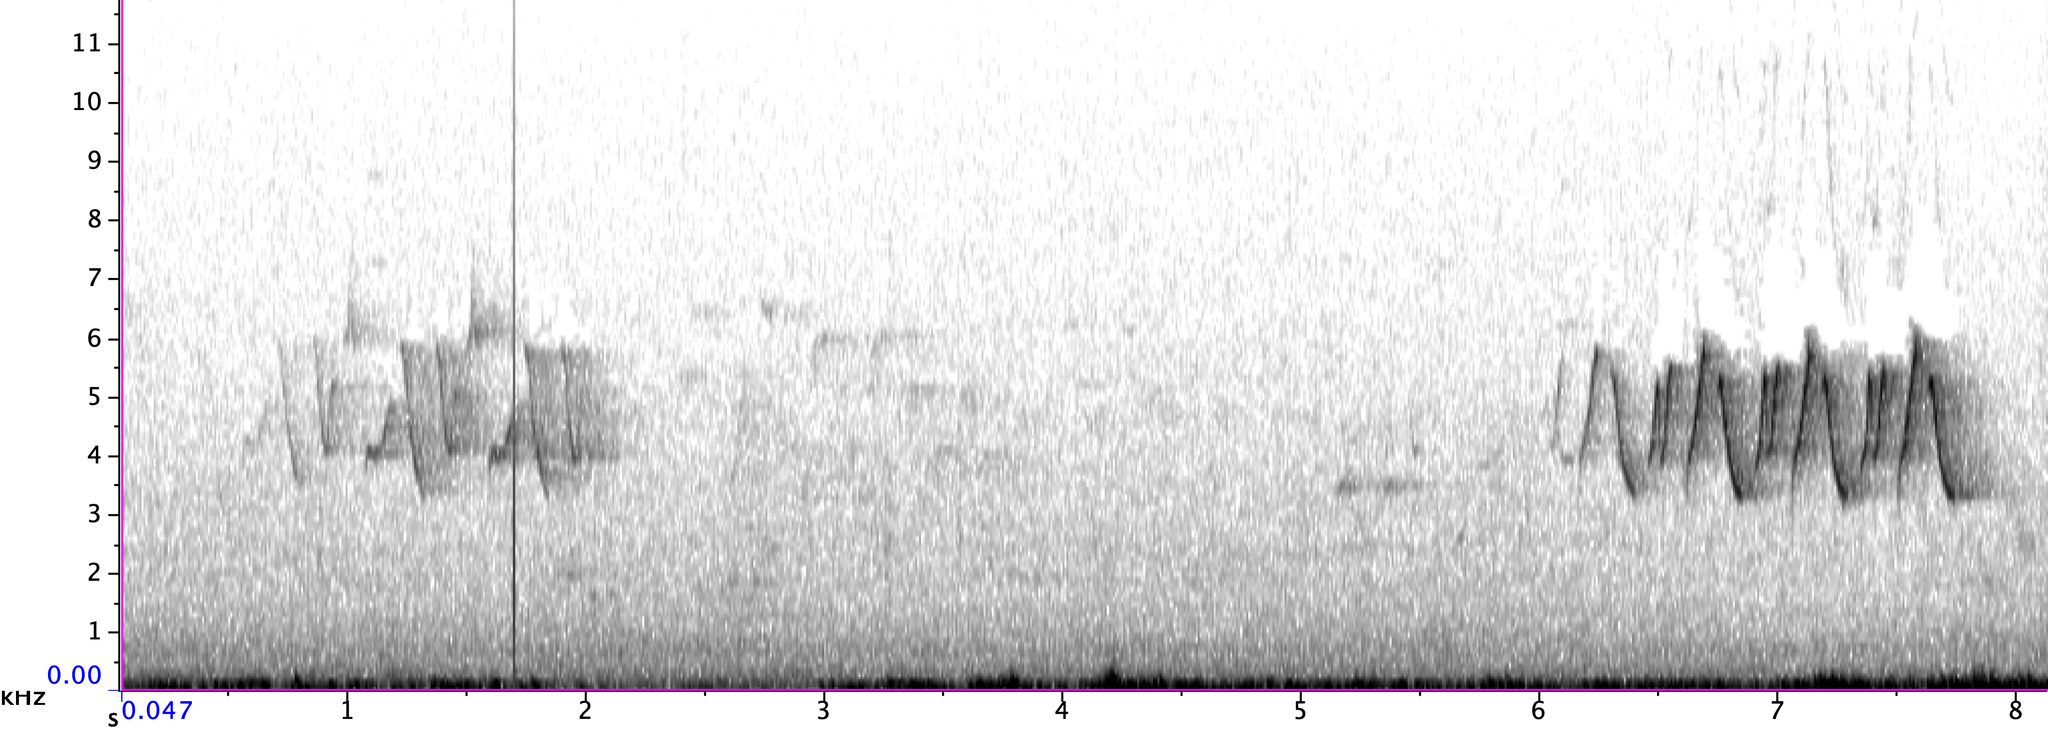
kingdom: Animalia
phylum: Chordata
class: Aves
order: Passeriformes
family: Parulidae
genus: Geothlypis
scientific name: Geothlypis trichas
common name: Common yellowthroat
